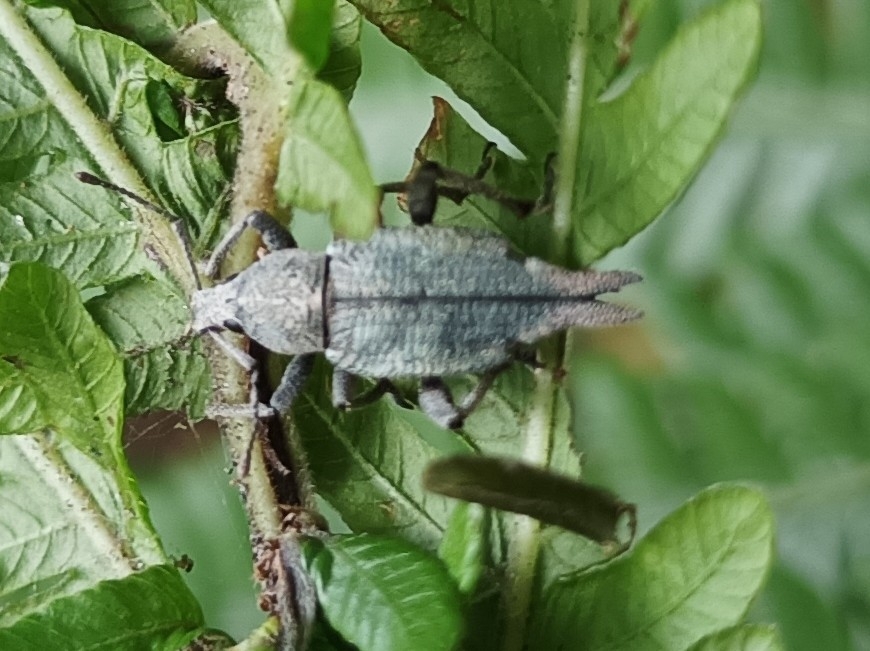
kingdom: Animalia
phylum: Arthropoda
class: Insecta
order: Coleoptera
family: Curculionidae
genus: Elytrurus
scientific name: Elytrurus caudatus
